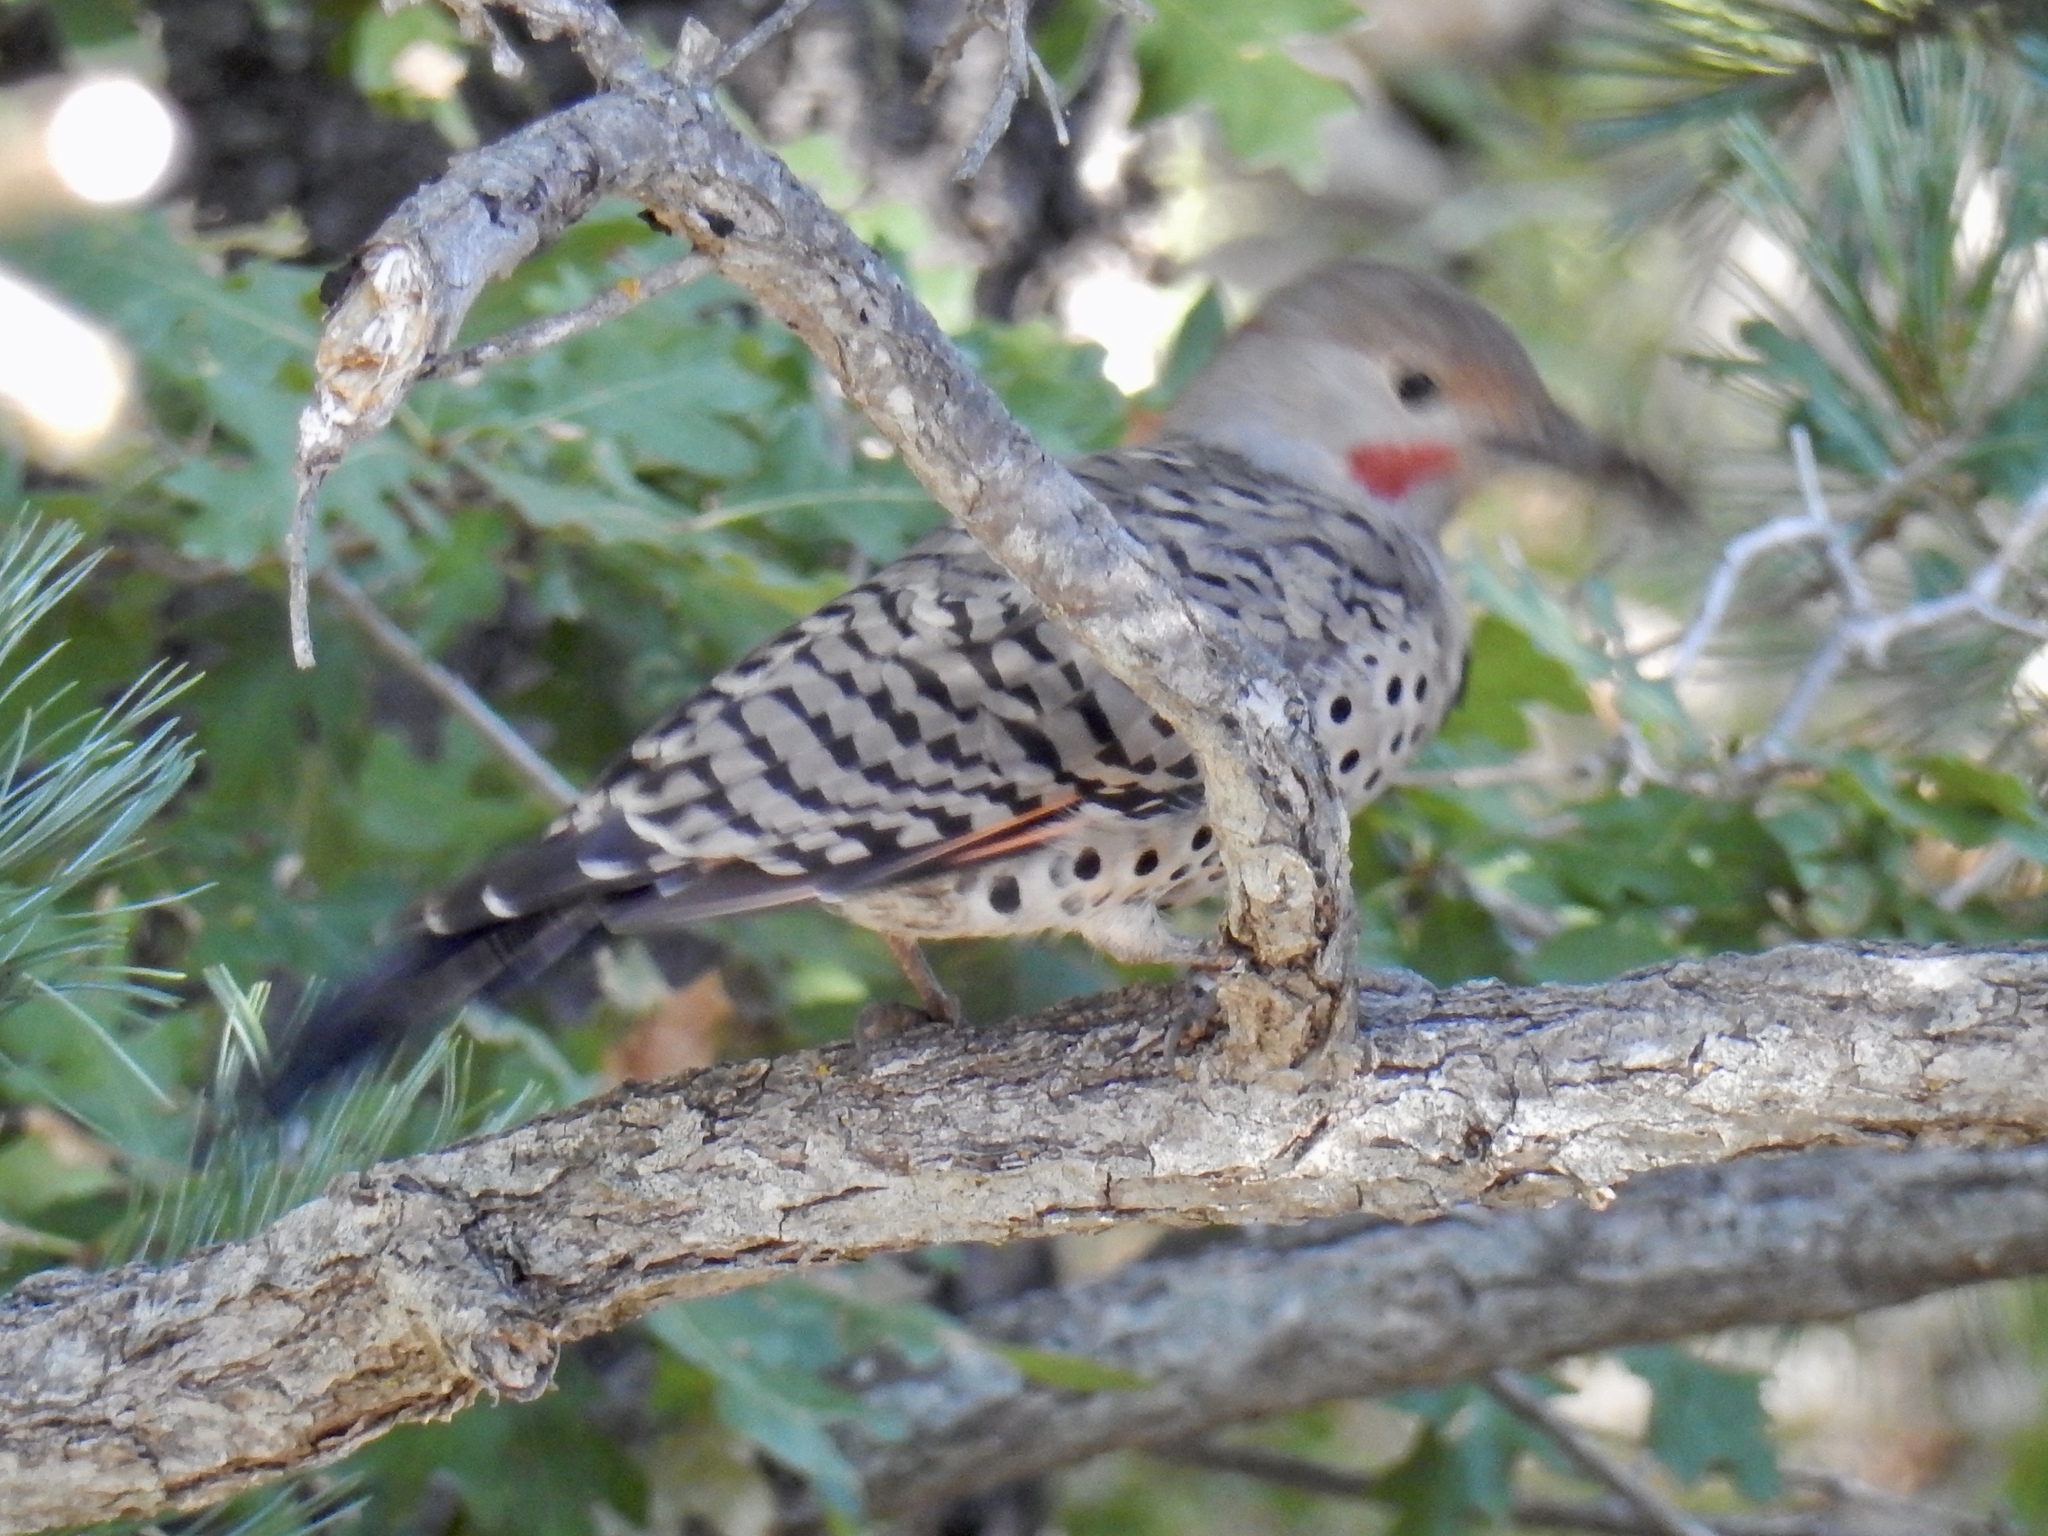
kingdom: Animalia
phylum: Chordata
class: Aves
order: Piciformes
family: Picidae
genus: Colaptes
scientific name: Colaptes auratus
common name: Northern flicker
